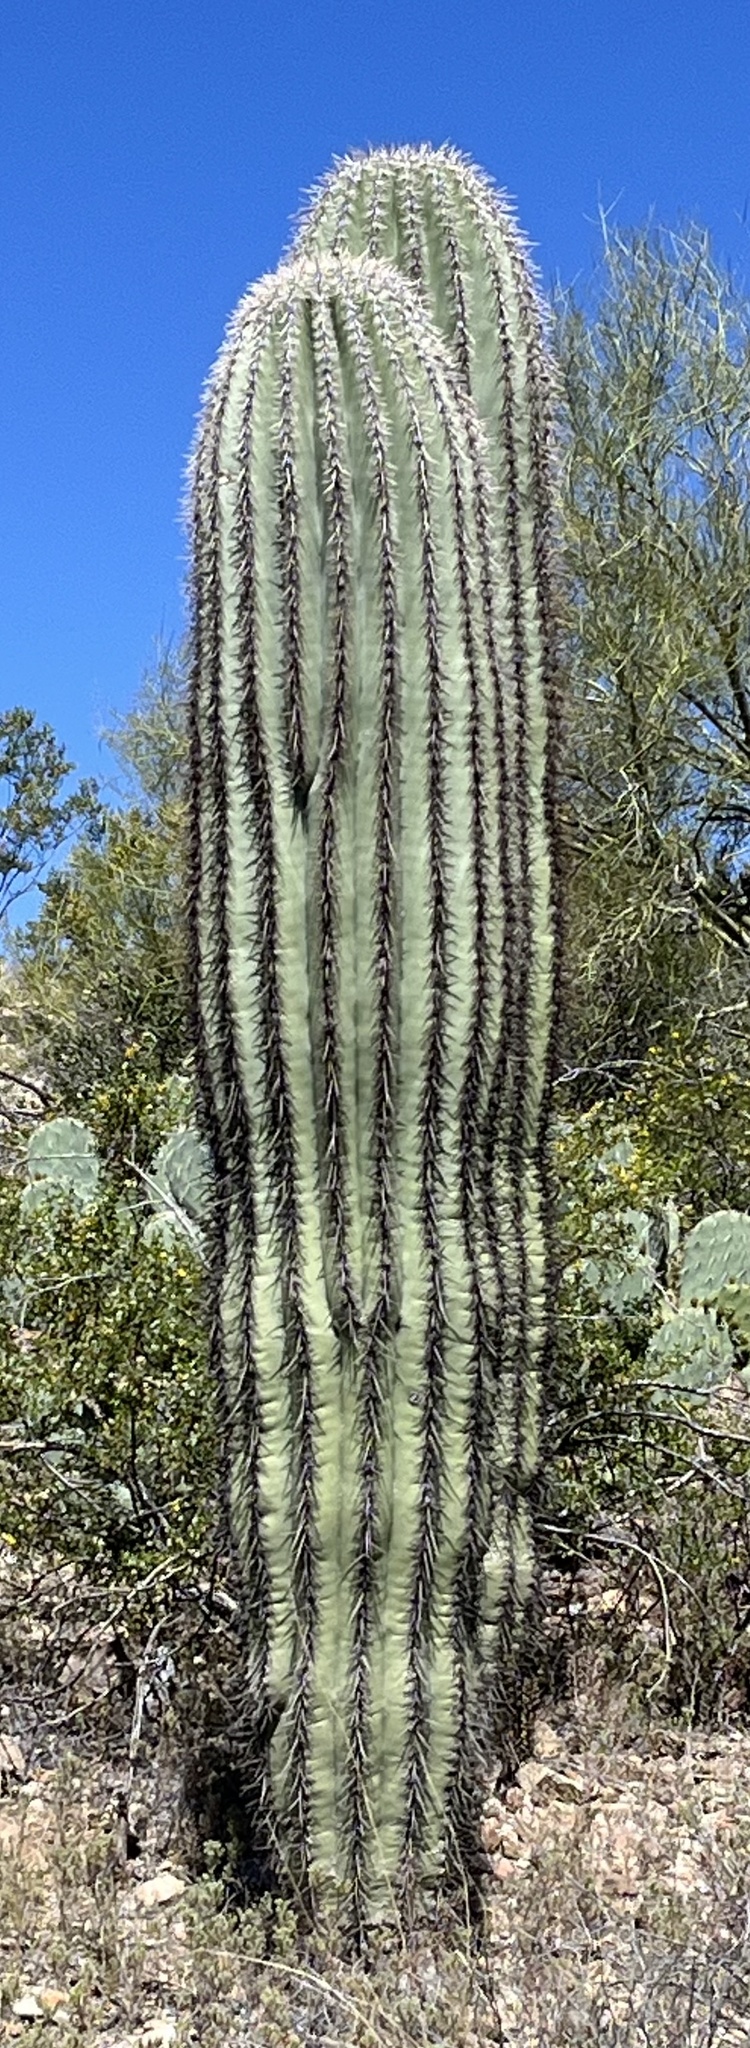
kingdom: Plantae
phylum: Tracheophyta
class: Magnoliopsida
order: Caryophyllales
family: Cactaceae
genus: Carnegiea
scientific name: Carnegiea gigantea
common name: Saguaro
